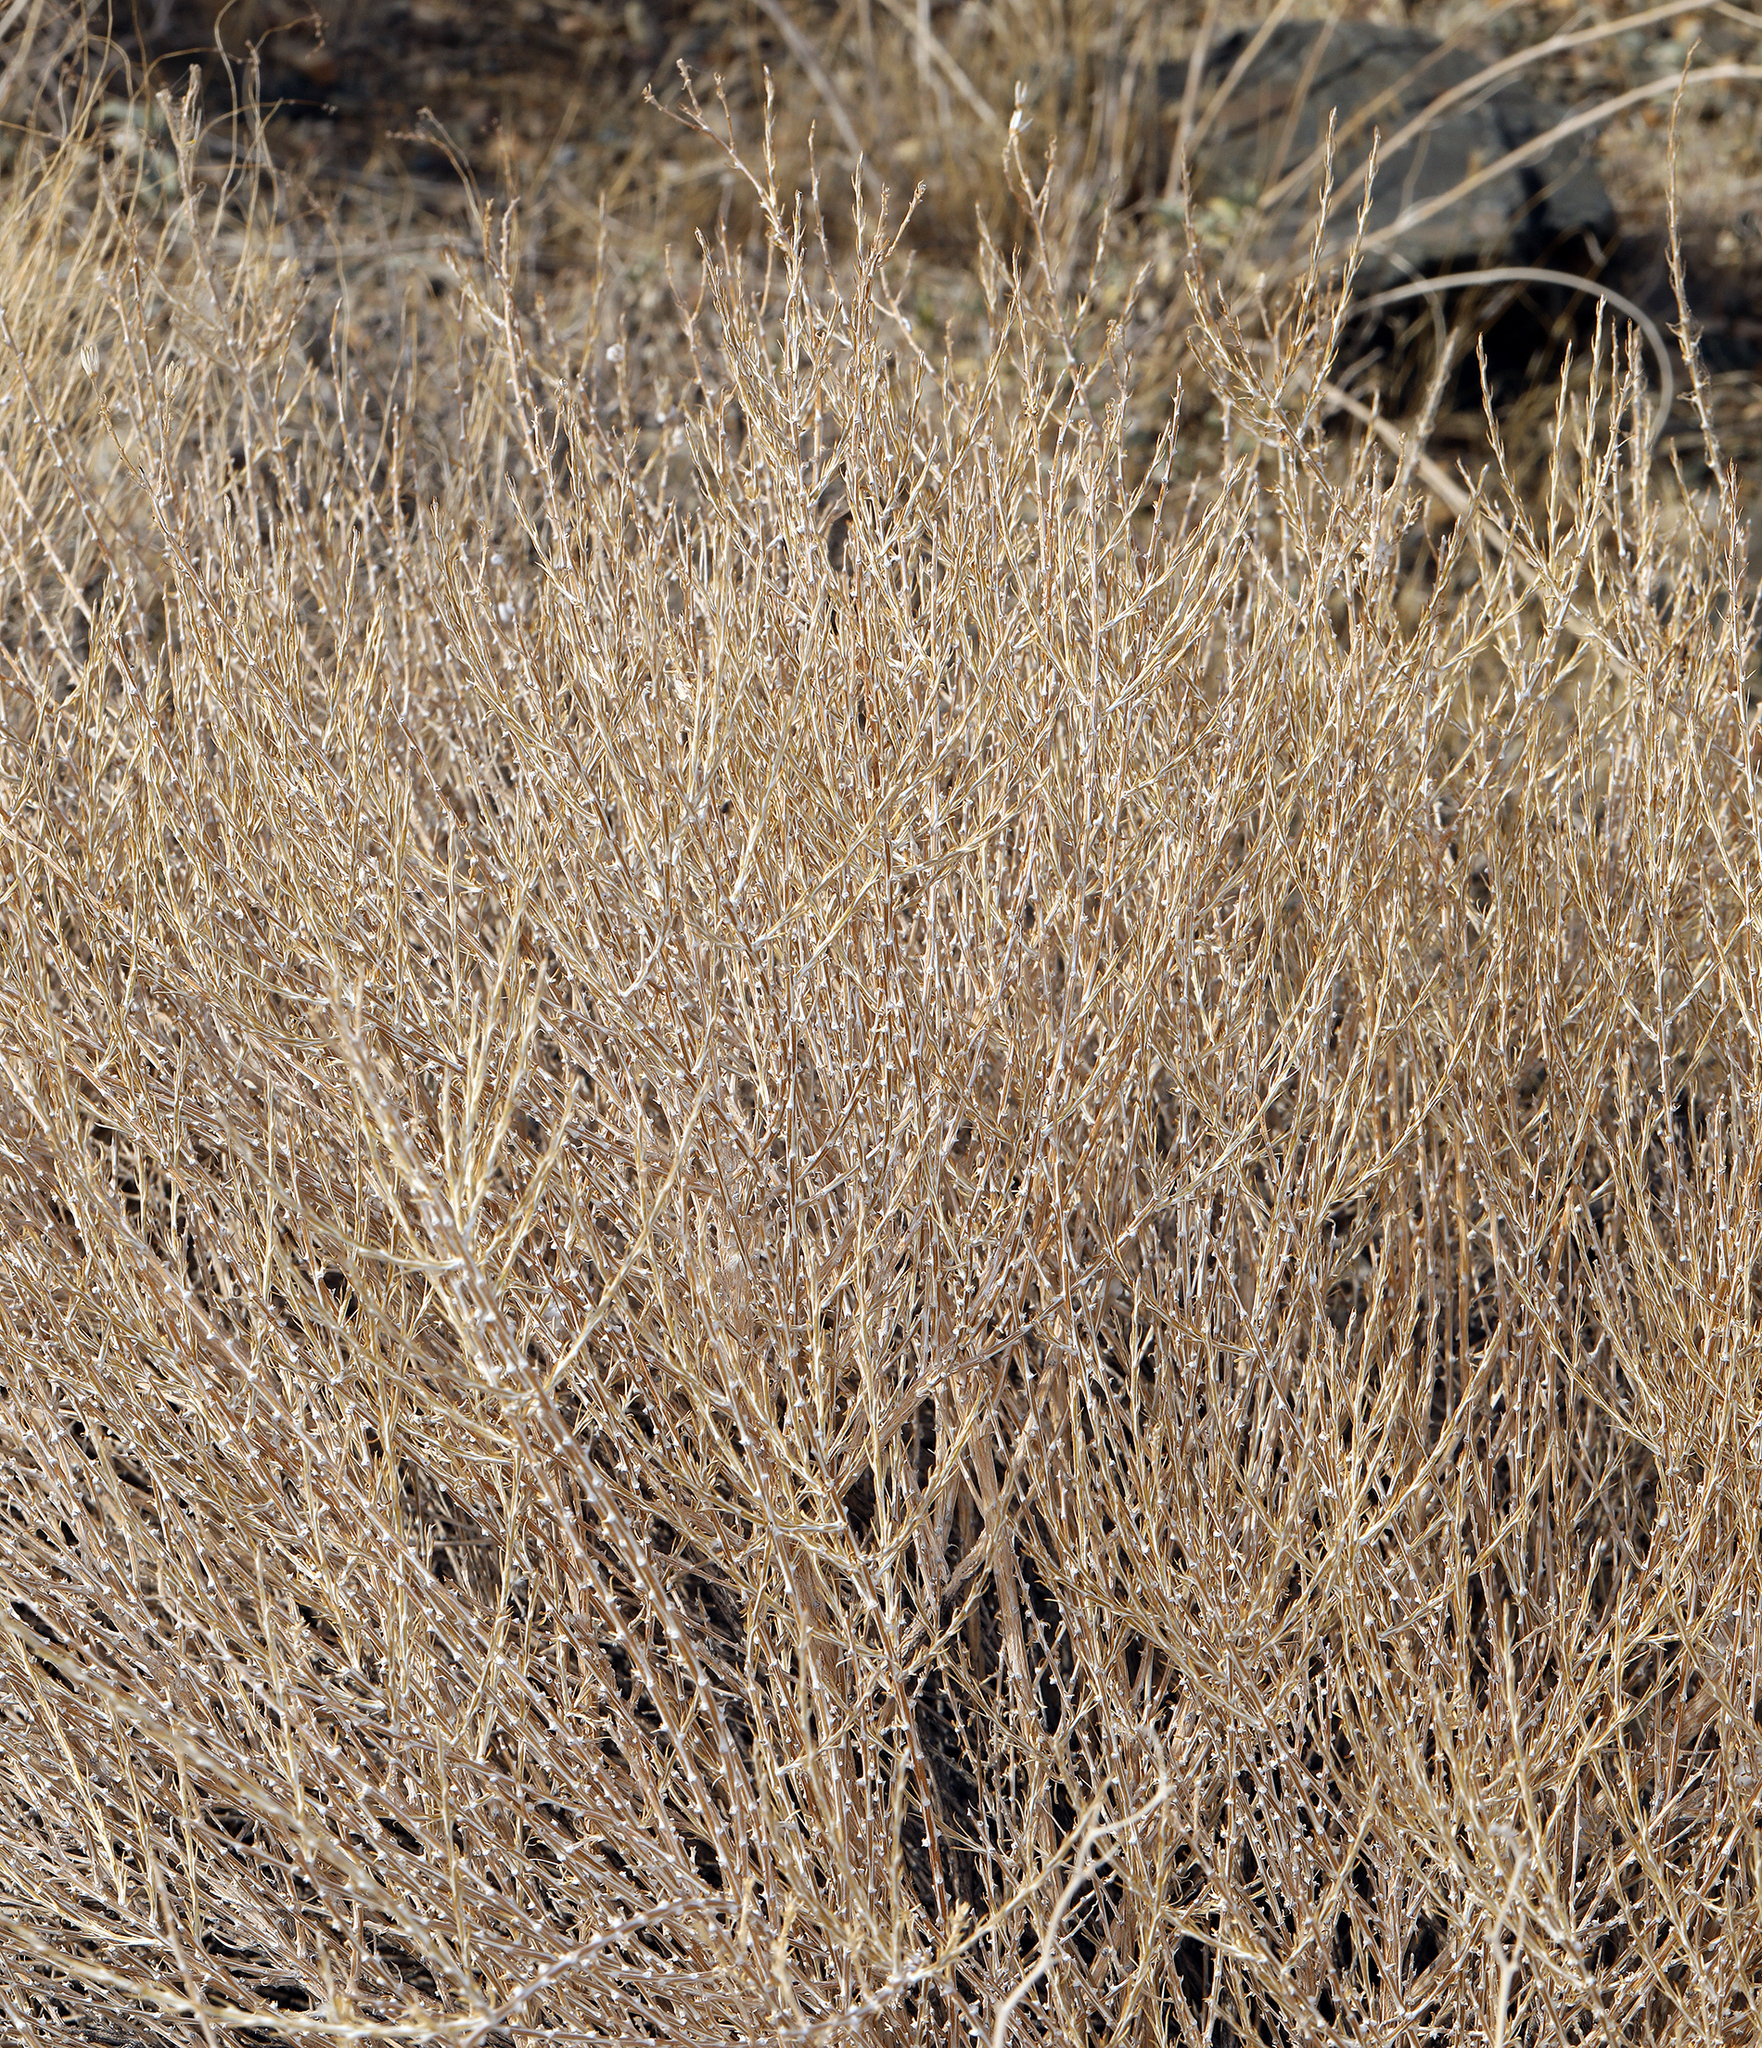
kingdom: Plantae
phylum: Tracheophyta
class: Magnoliopsida
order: Asterales
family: Asteraceae
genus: Tetradymia
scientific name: Tetradymia glabrata
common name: Smooth tetradymia
